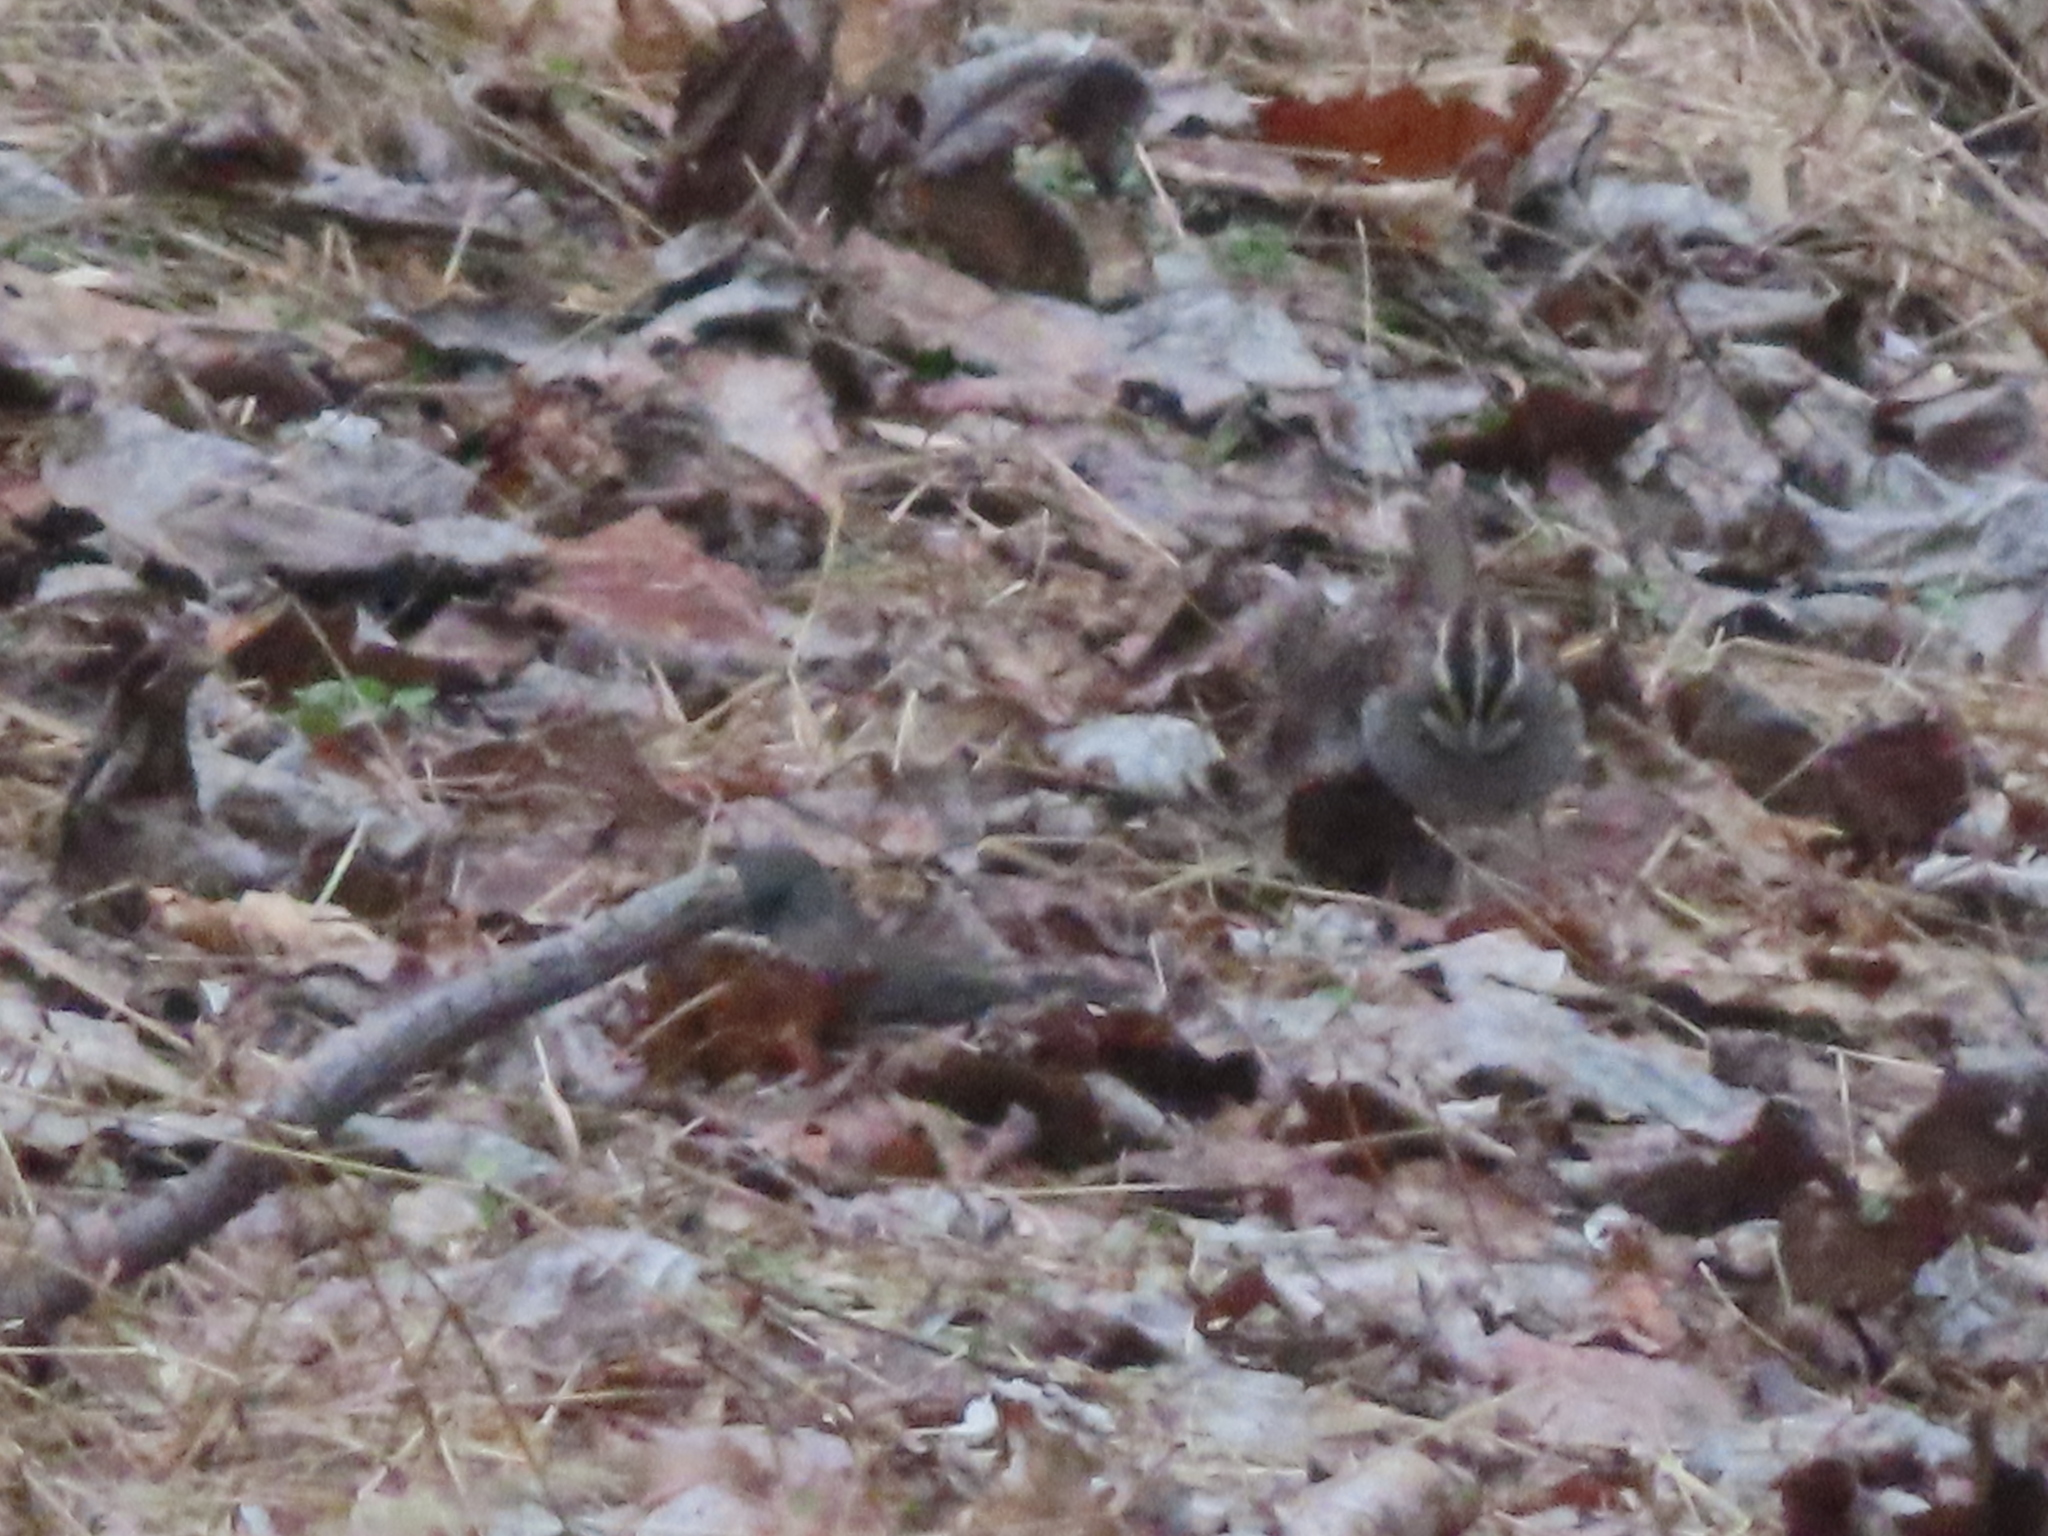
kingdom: Animalia
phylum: Chordata
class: Aves
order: Passeriformes
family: Passerellidae
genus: Zonotrichia
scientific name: Zonotrichia albicollis
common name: White-throated sparrow
